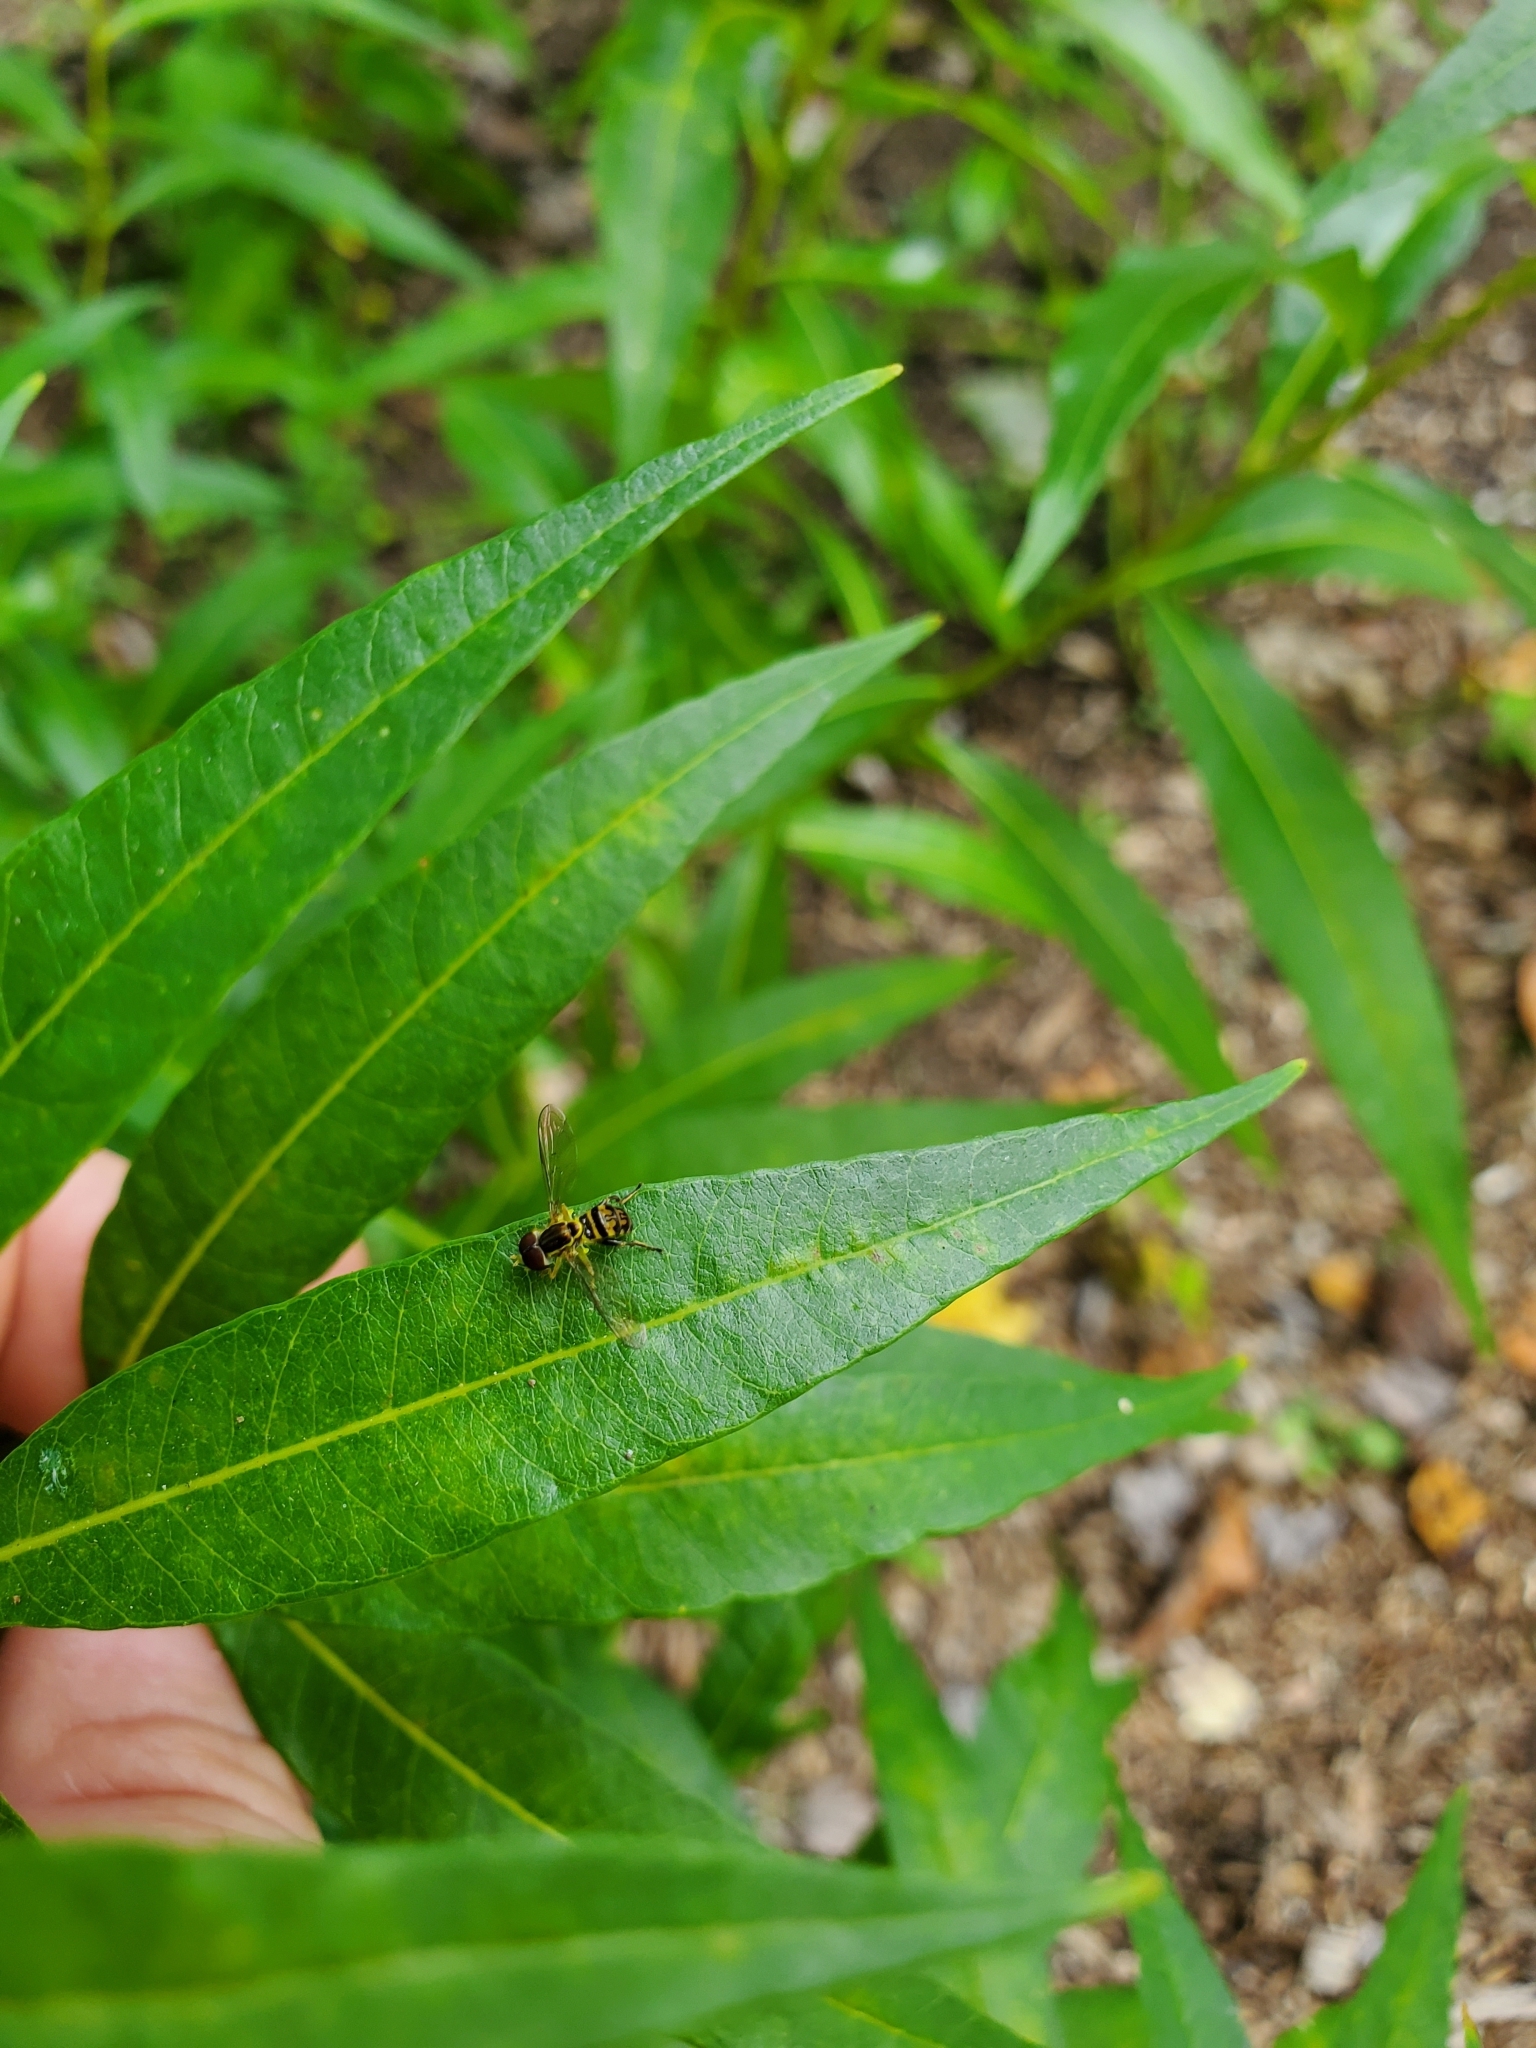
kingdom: Animalia
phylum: Arthropoda
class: Insecta
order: Diptera
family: Syrphidae
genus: Toxomerus
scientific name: Toxomerus geminatus
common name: Eastern calligrapher
